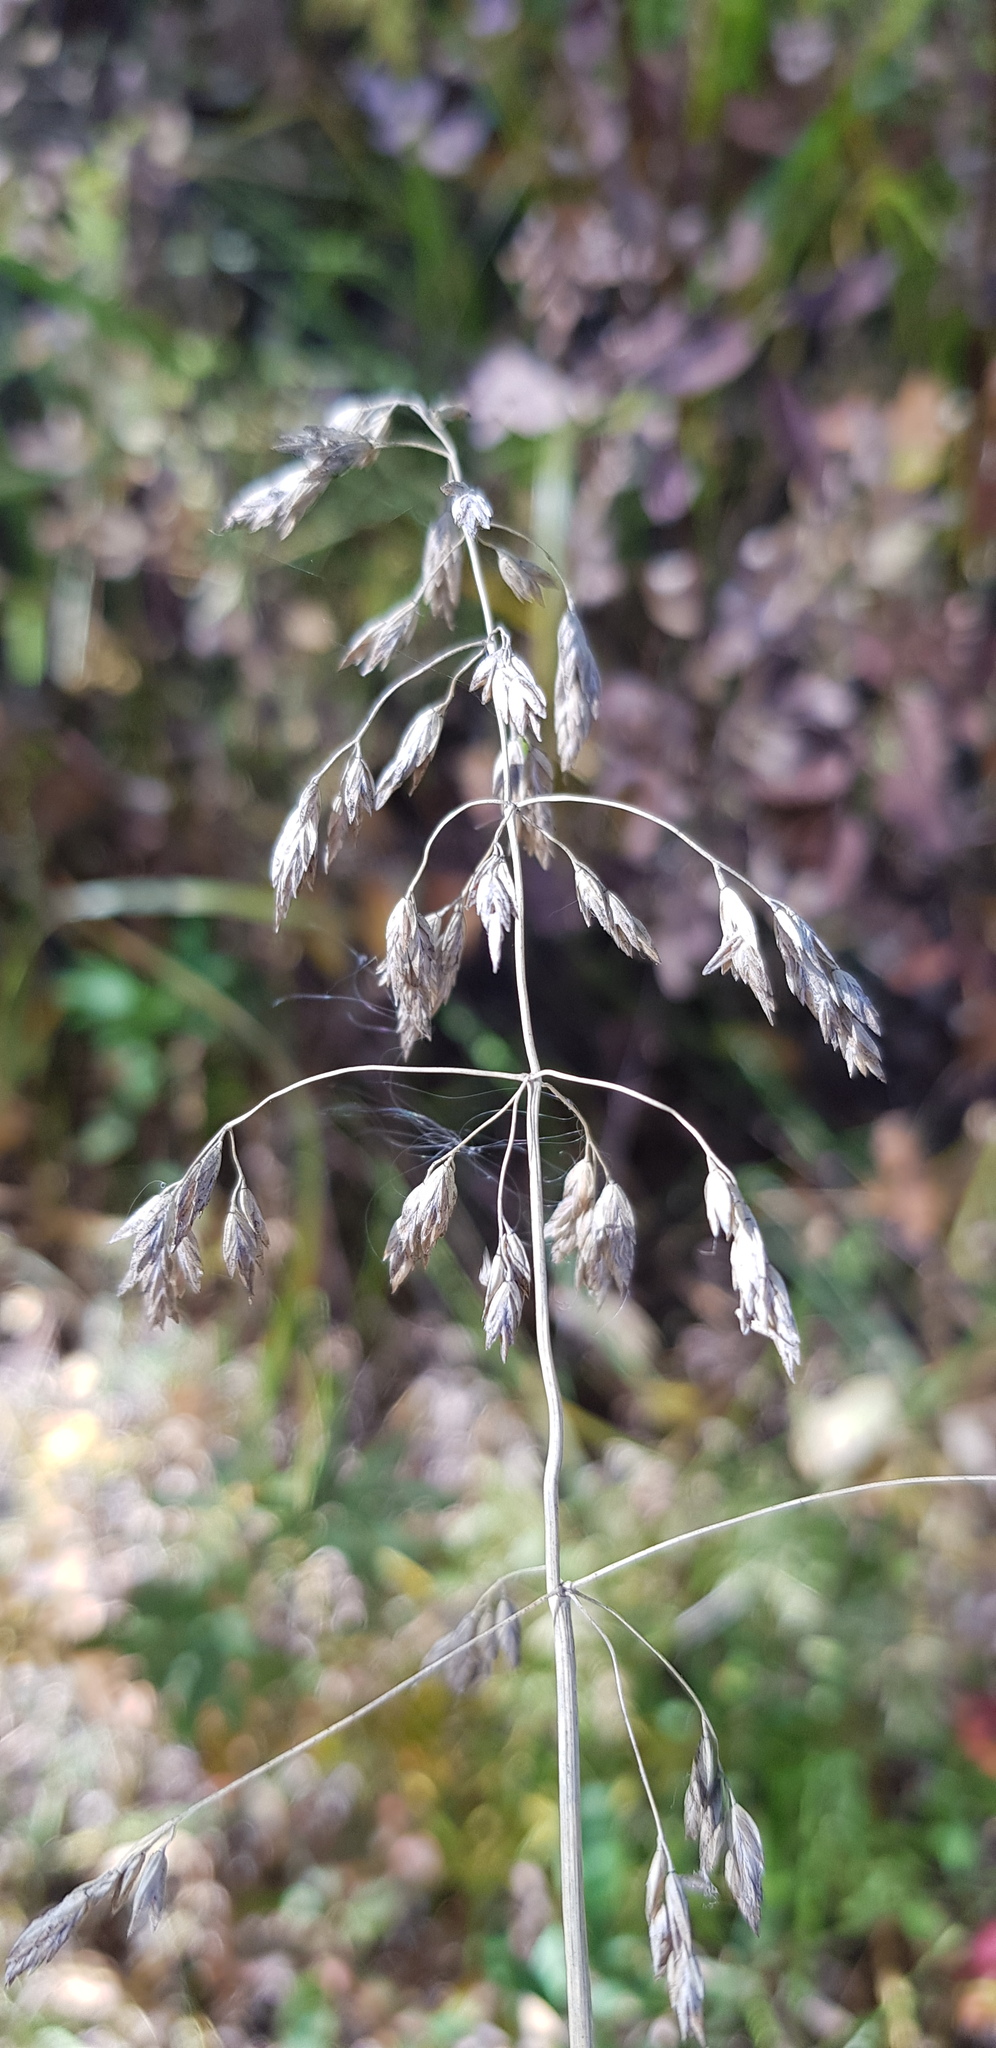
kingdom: Plantae
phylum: Tracheophyta
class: Liliopsida
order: Poales
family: Poaceae
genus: Poa
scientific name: Poa pratensis
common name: Kentucky bluegrass
